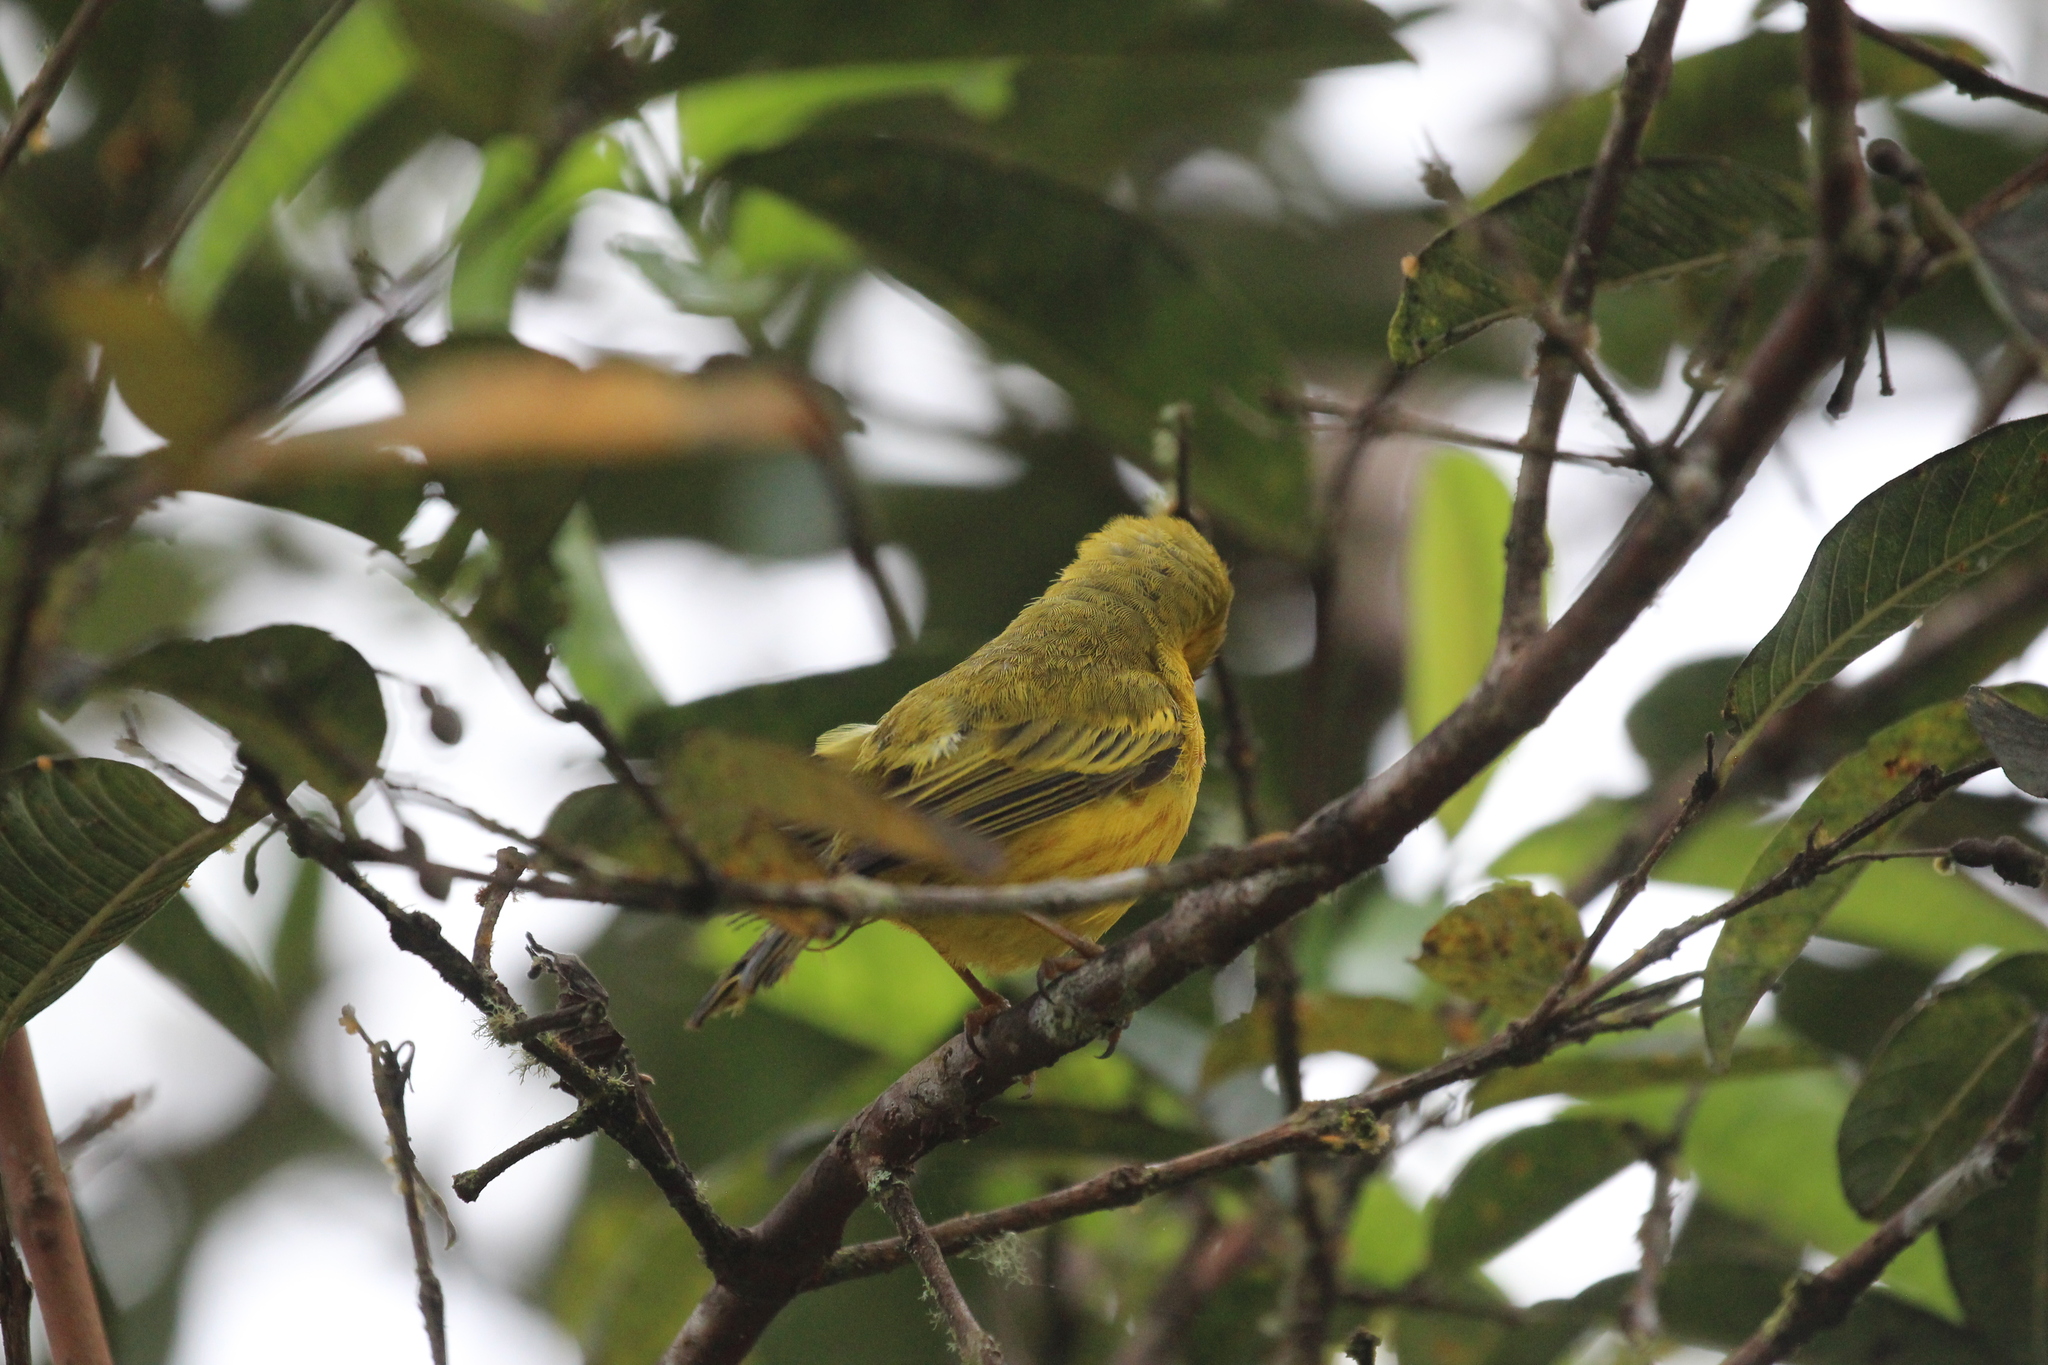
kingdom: Animalia
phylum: Chordata
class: Aves
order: Passeriformes
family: Parulidae
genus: Setophaga
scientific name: Setophaga petechia
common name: Yellow warbler
